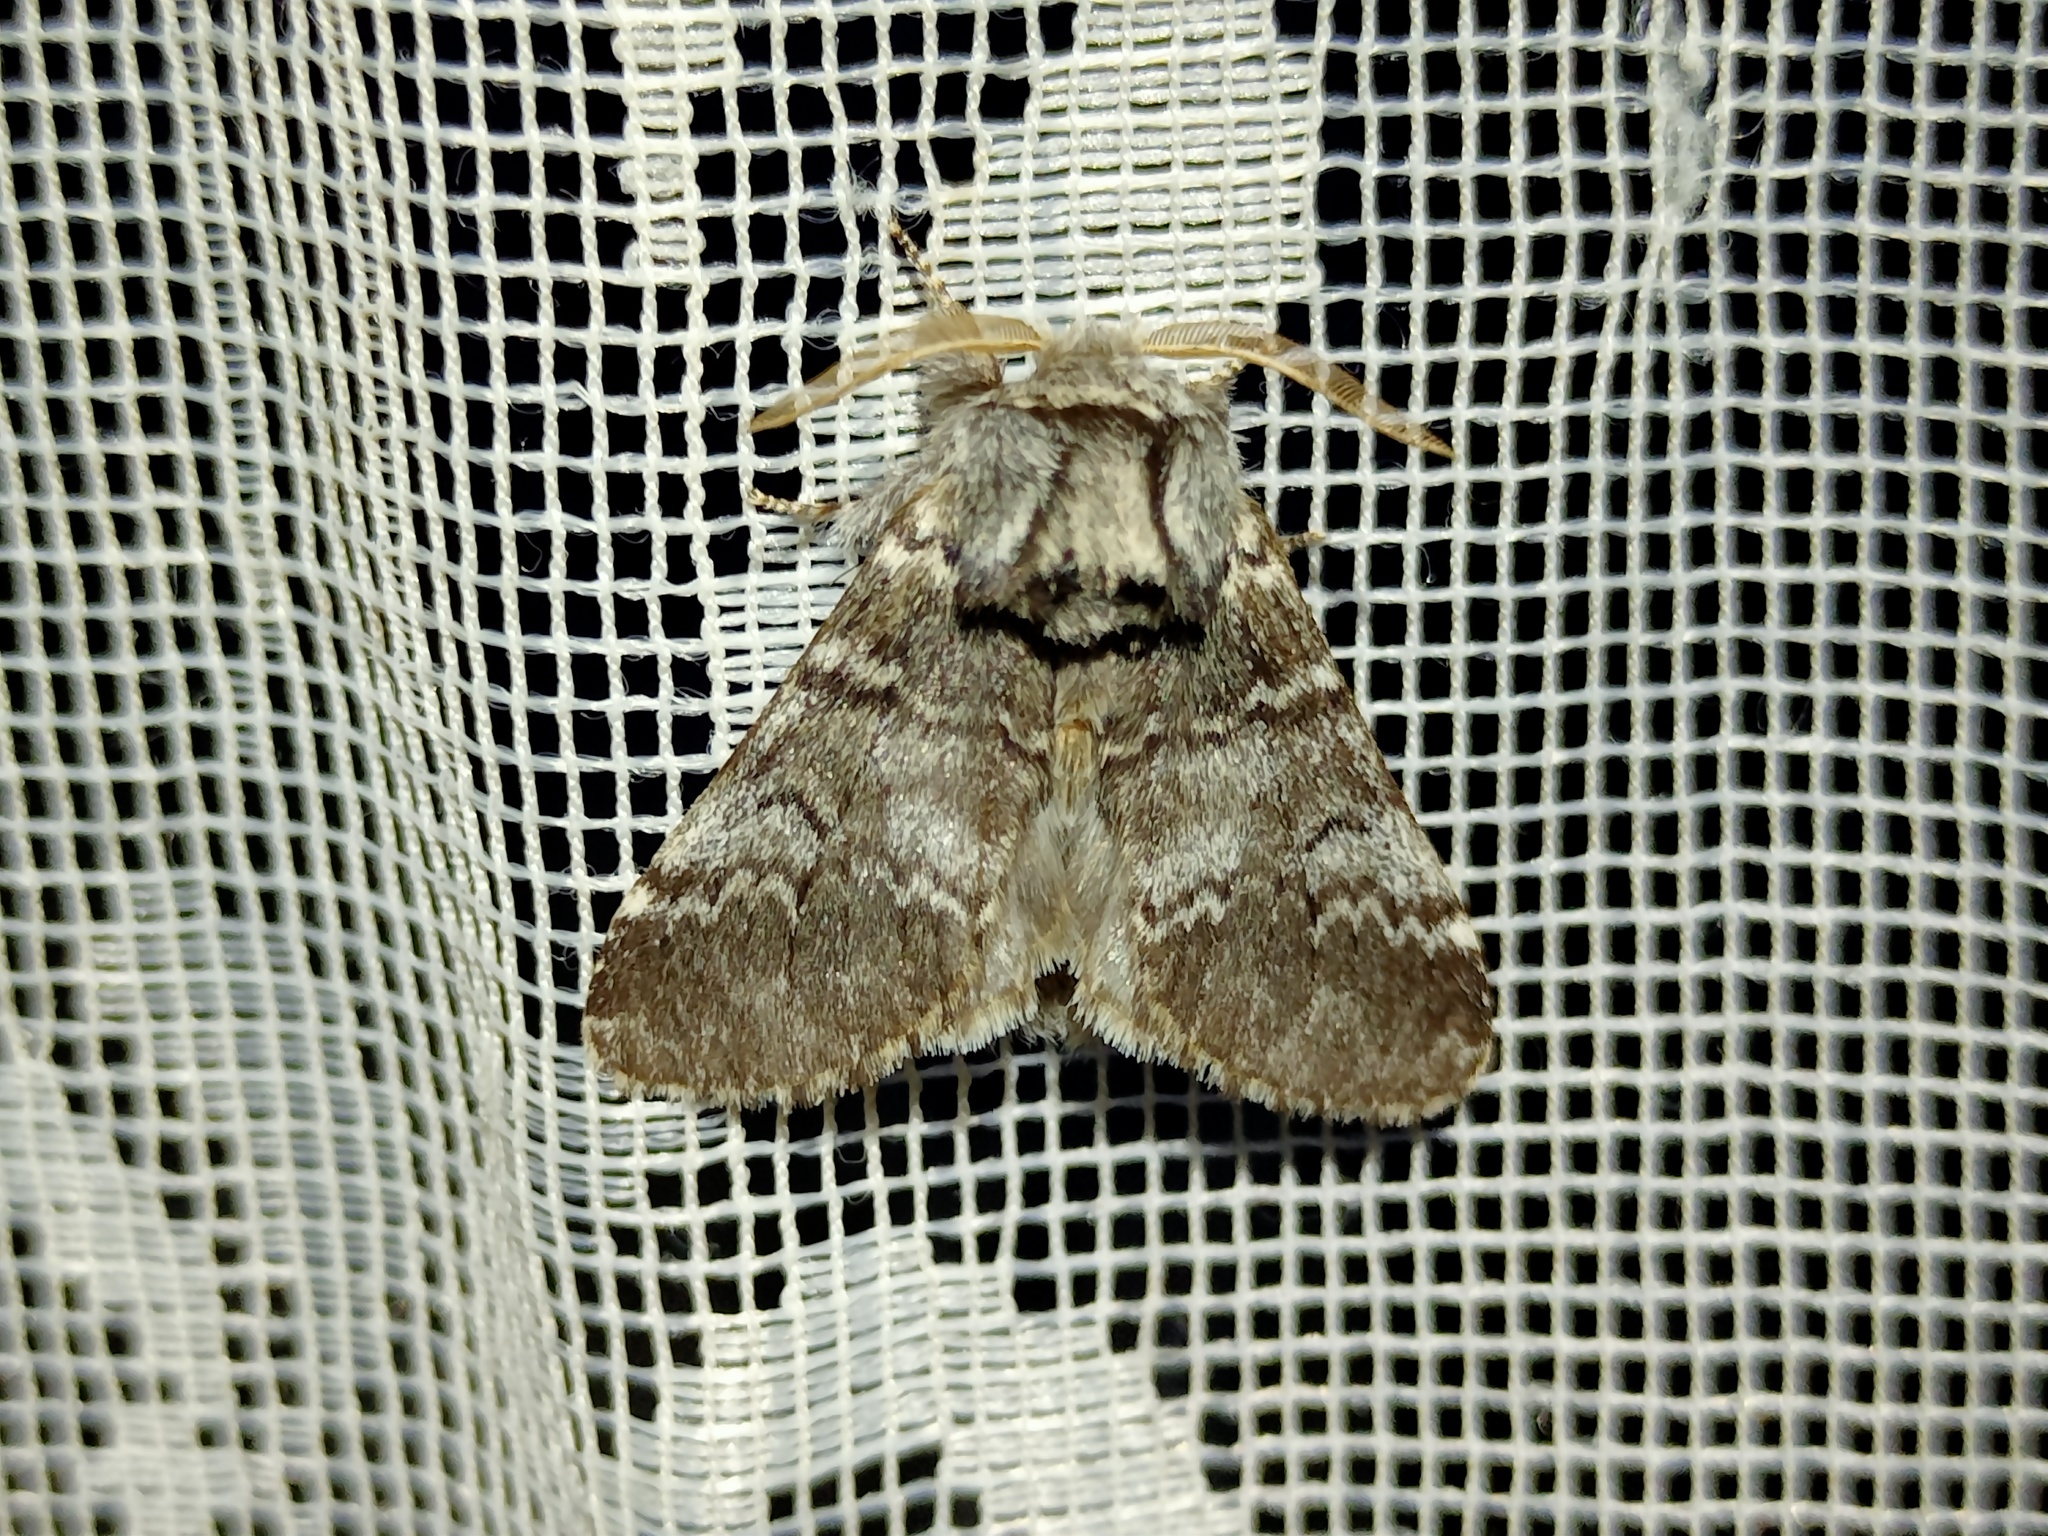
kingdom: Animalia
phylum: Arthropoda
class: Insecta
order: Lepidoptera
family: Notodontidae
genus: Drymonia
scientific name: Drymonia ruficornis
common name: Lunar marbled brown
